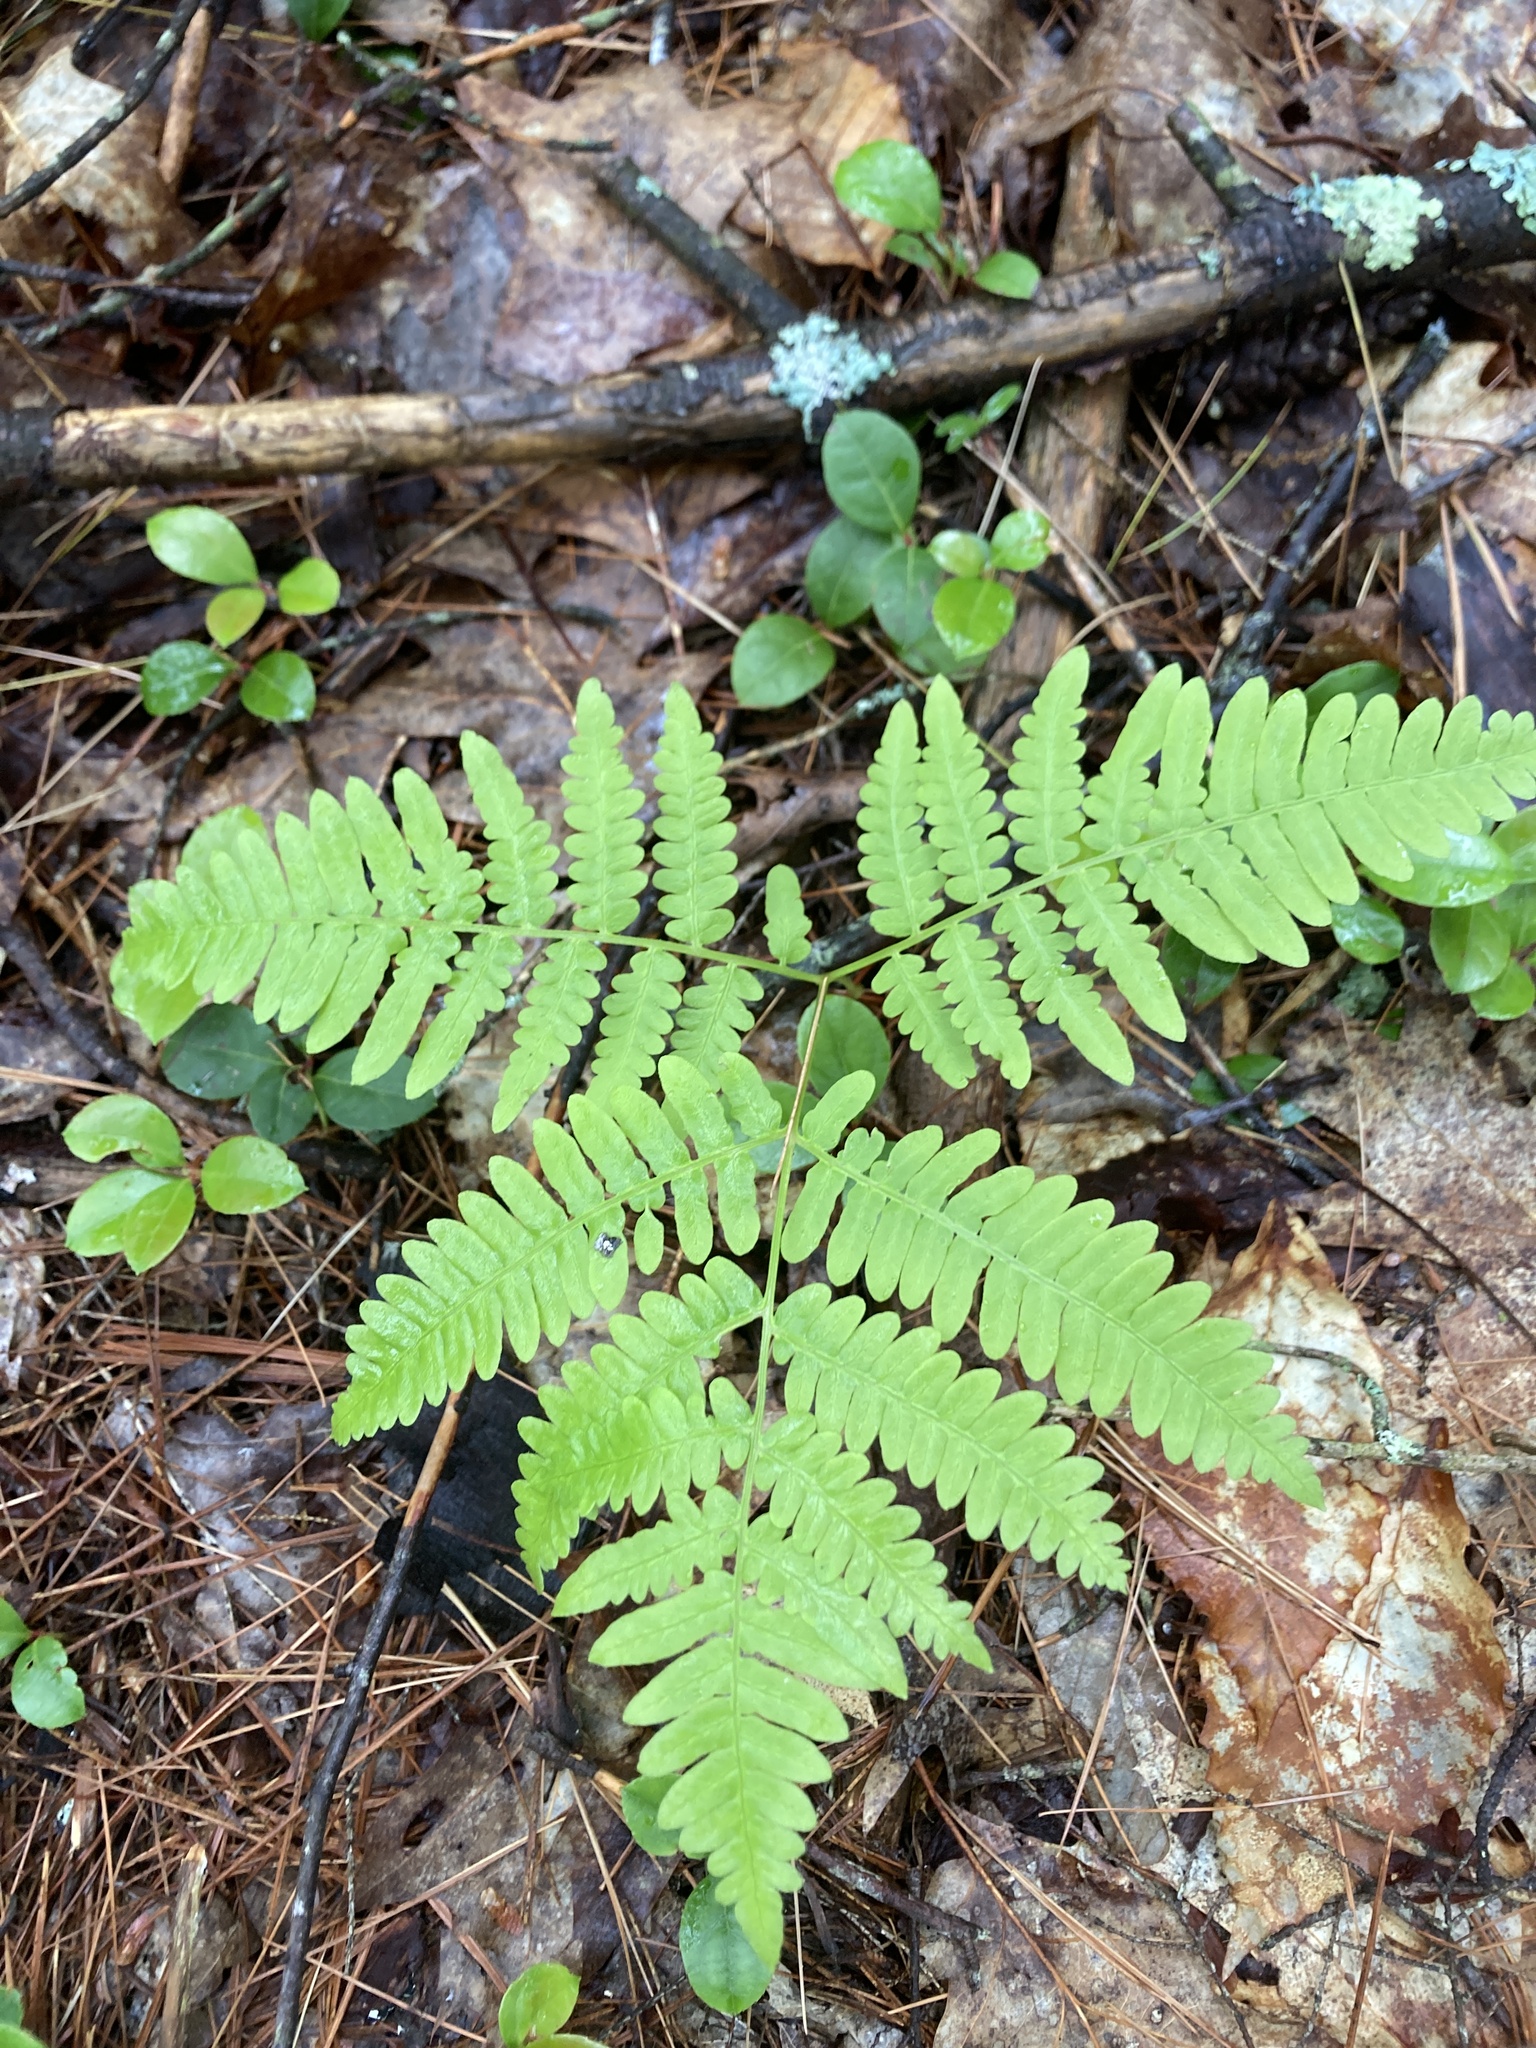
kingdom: Plantae
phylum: Tracheophyta
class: Polypodiopsida
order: Polypodiales
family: Dennstaedtiaceae
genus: Pteridium
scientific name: Pteridium aquilinum
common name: Bracken
